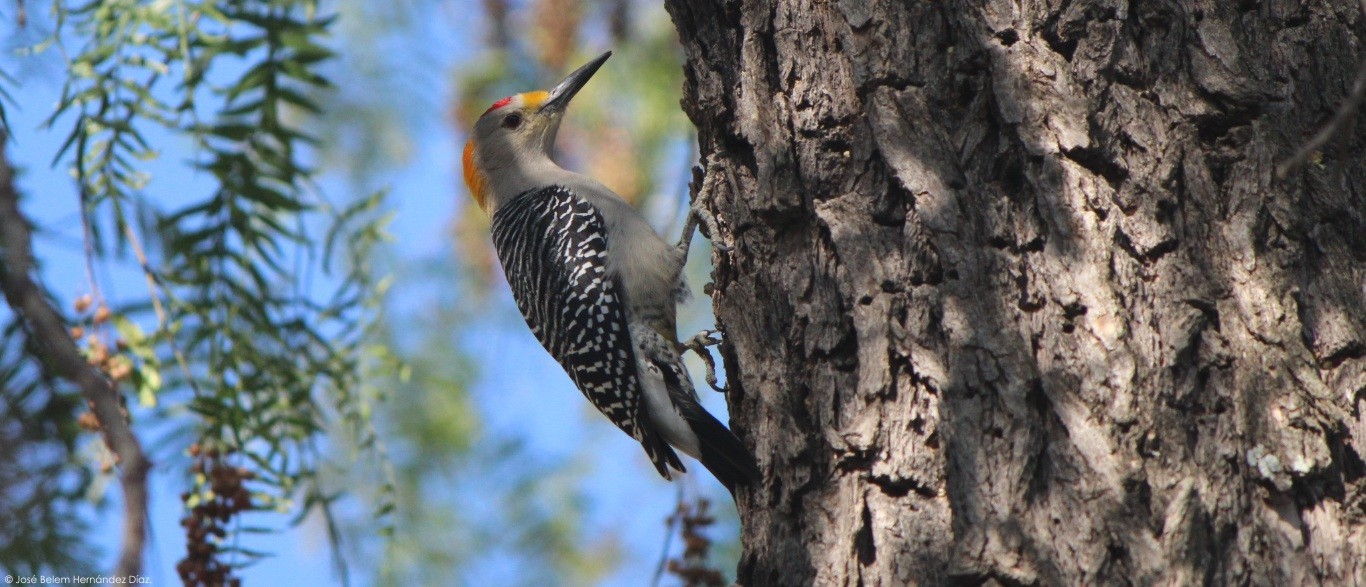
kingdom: Animalia
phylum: Chordata
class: Aves
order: Piciformes
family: Picidae
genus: Melanerpes
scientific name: Melanerpes aurifrons
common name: Golden-fronted woodpecker
